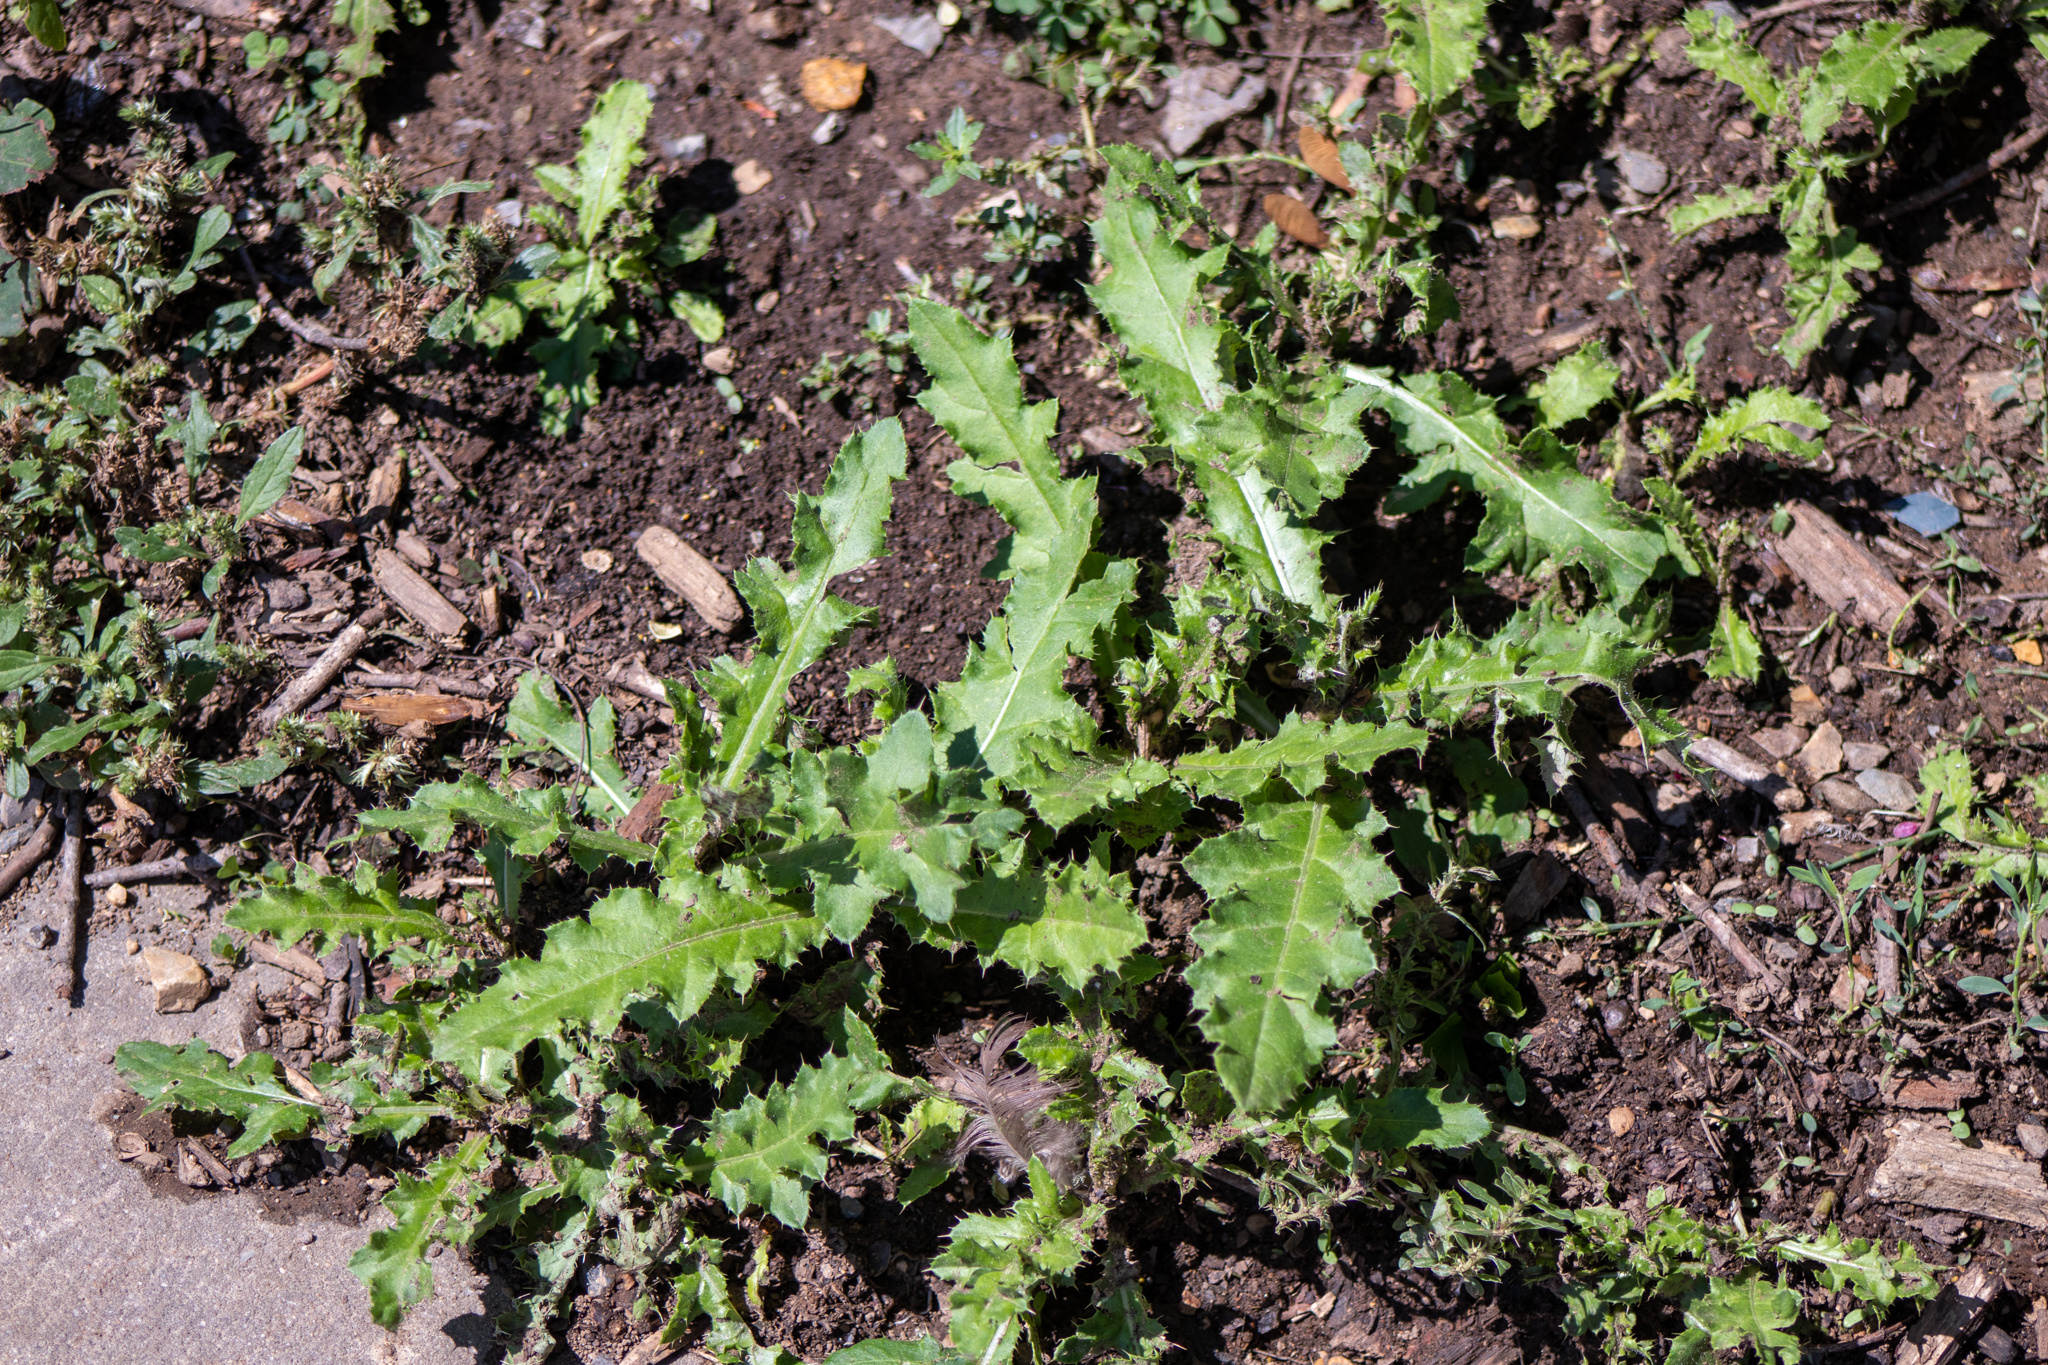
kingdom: Plantae
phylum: Tracheophyta
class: Magnoliopsida
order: Asterales
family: Asteraceae
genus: Cirsium
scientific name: Cirsium arvense
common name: Creeping thistle
